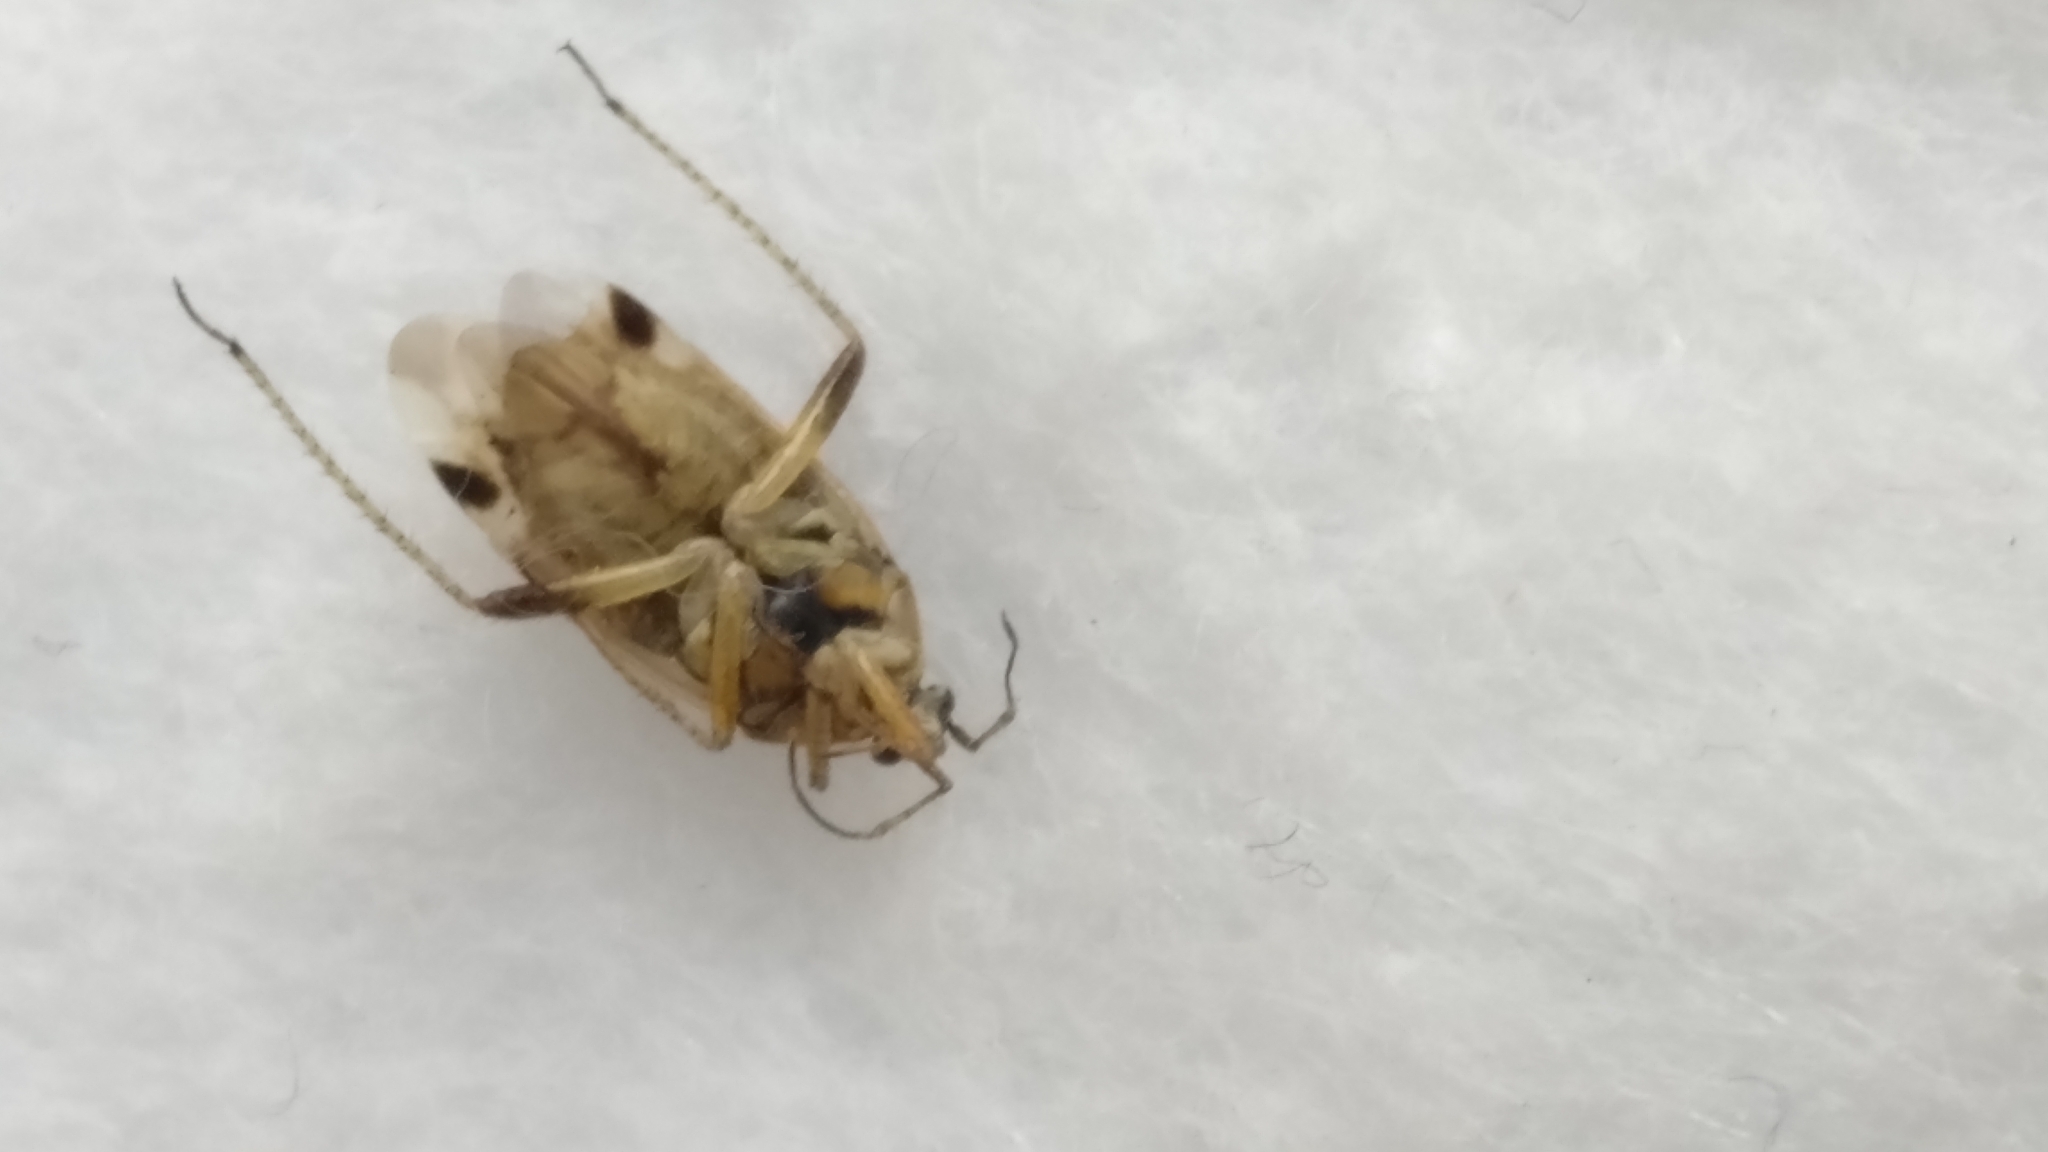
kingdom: Animalia
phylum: Arthropoda
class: Insecta
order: Hemiptera
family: Miridae
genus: Harpocera
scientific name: Harpocera thoracica
